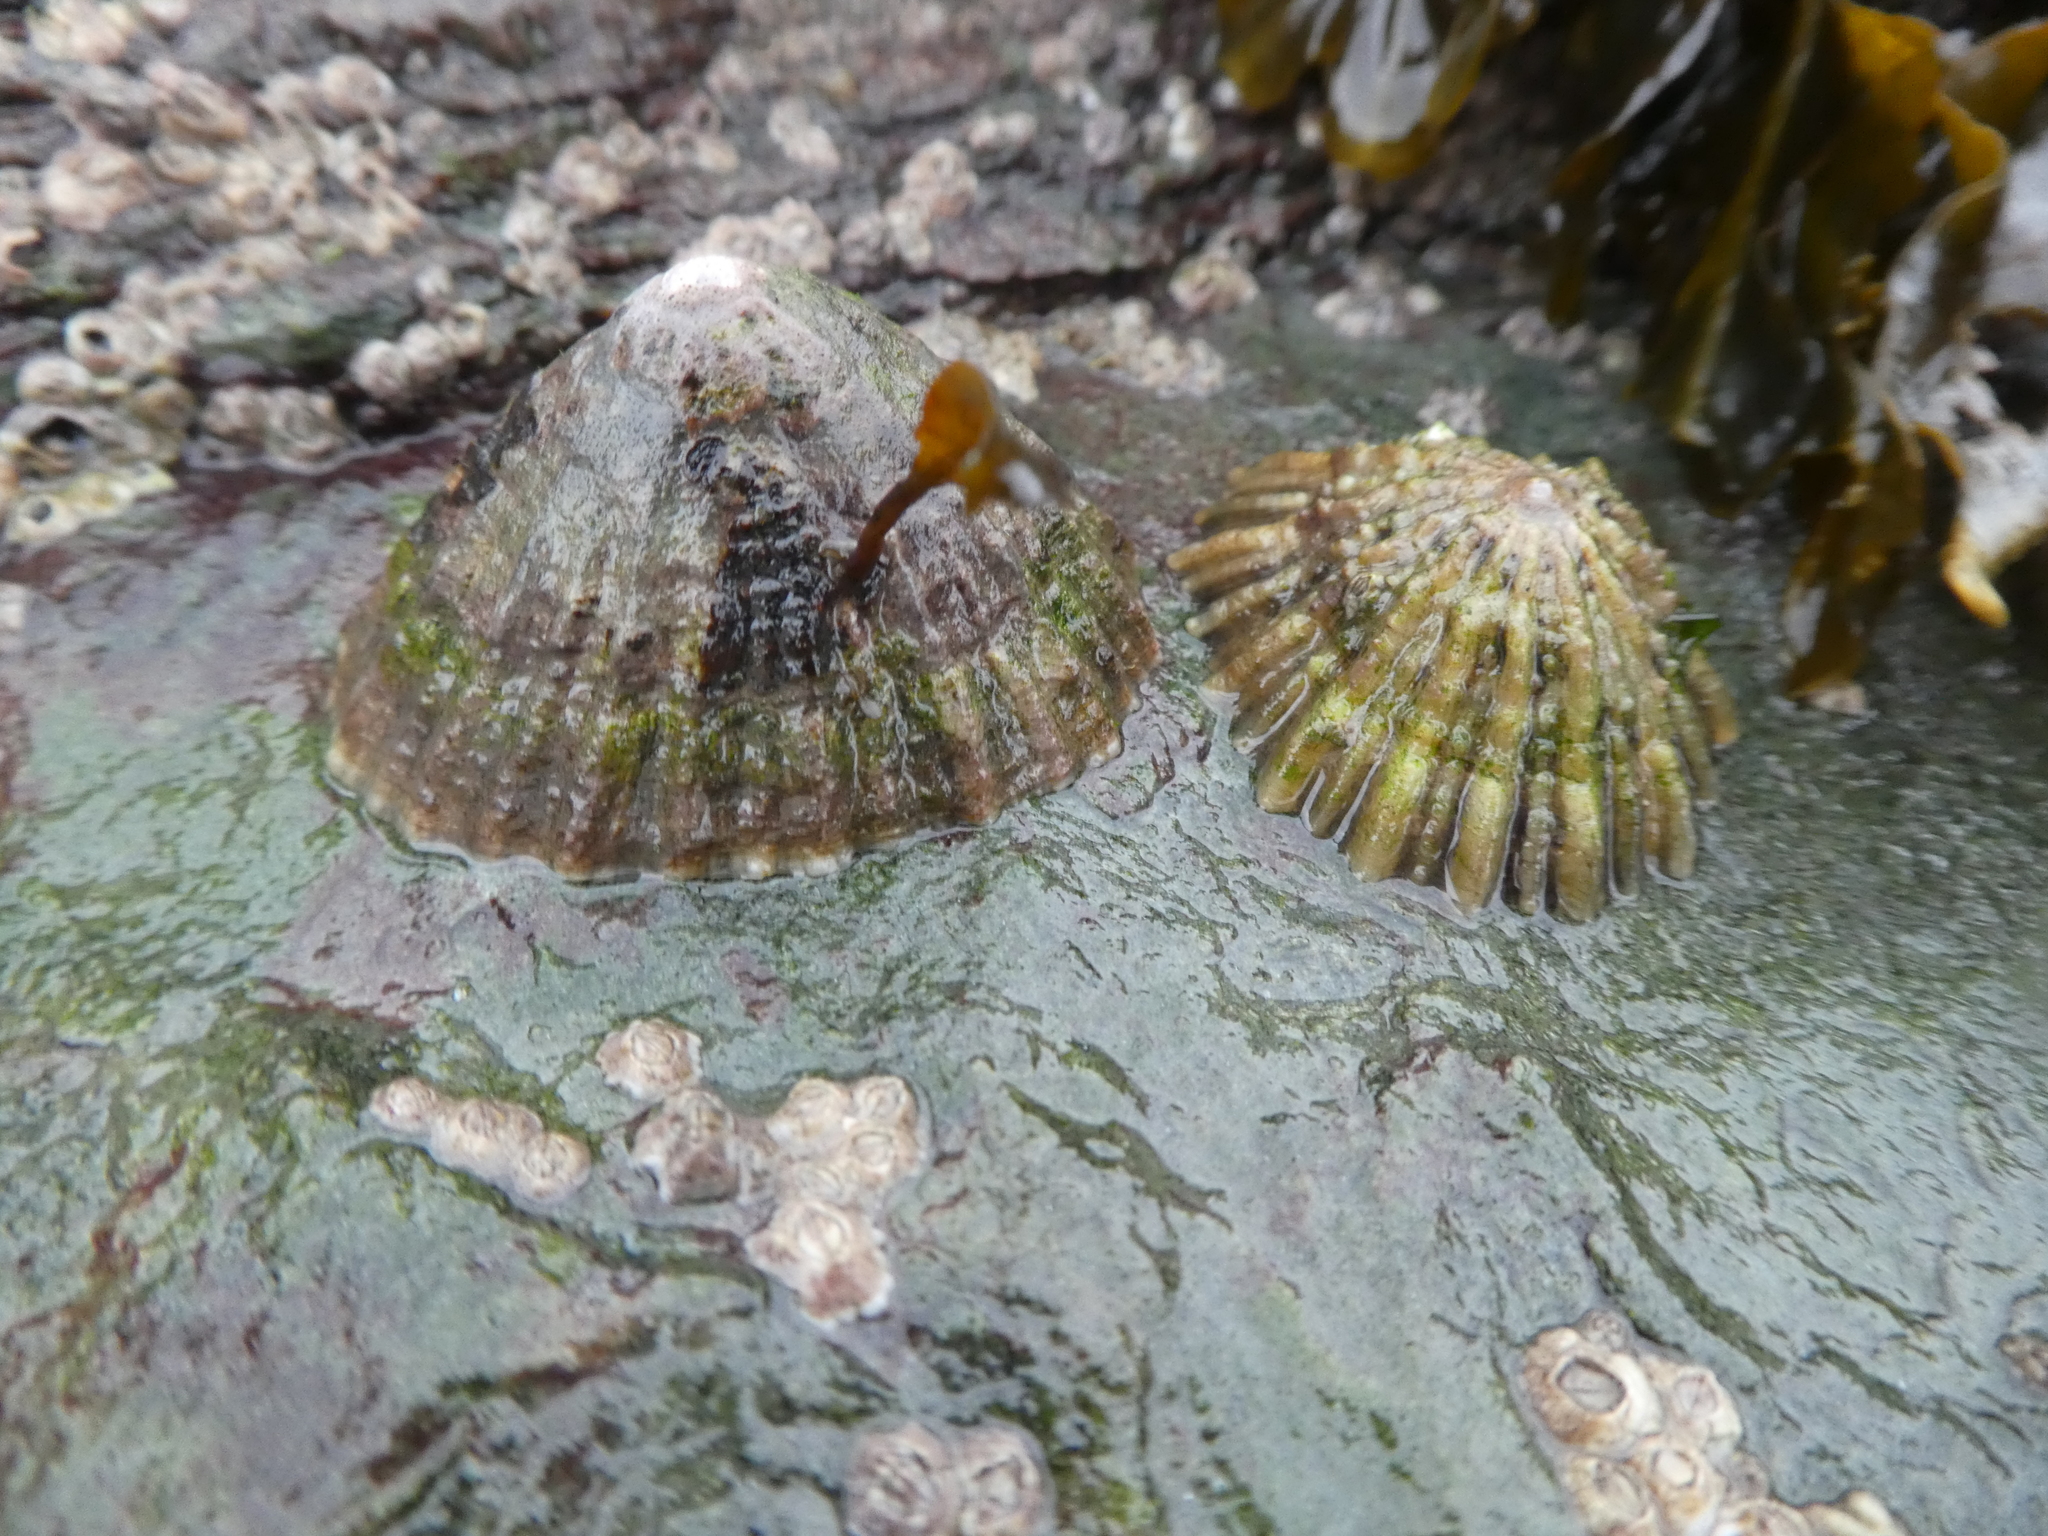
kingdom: Animalia
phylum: Mollusca
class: Gastropoda
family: Patellidae
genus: Patella
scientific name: Patella vulgata
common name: Common limpet
